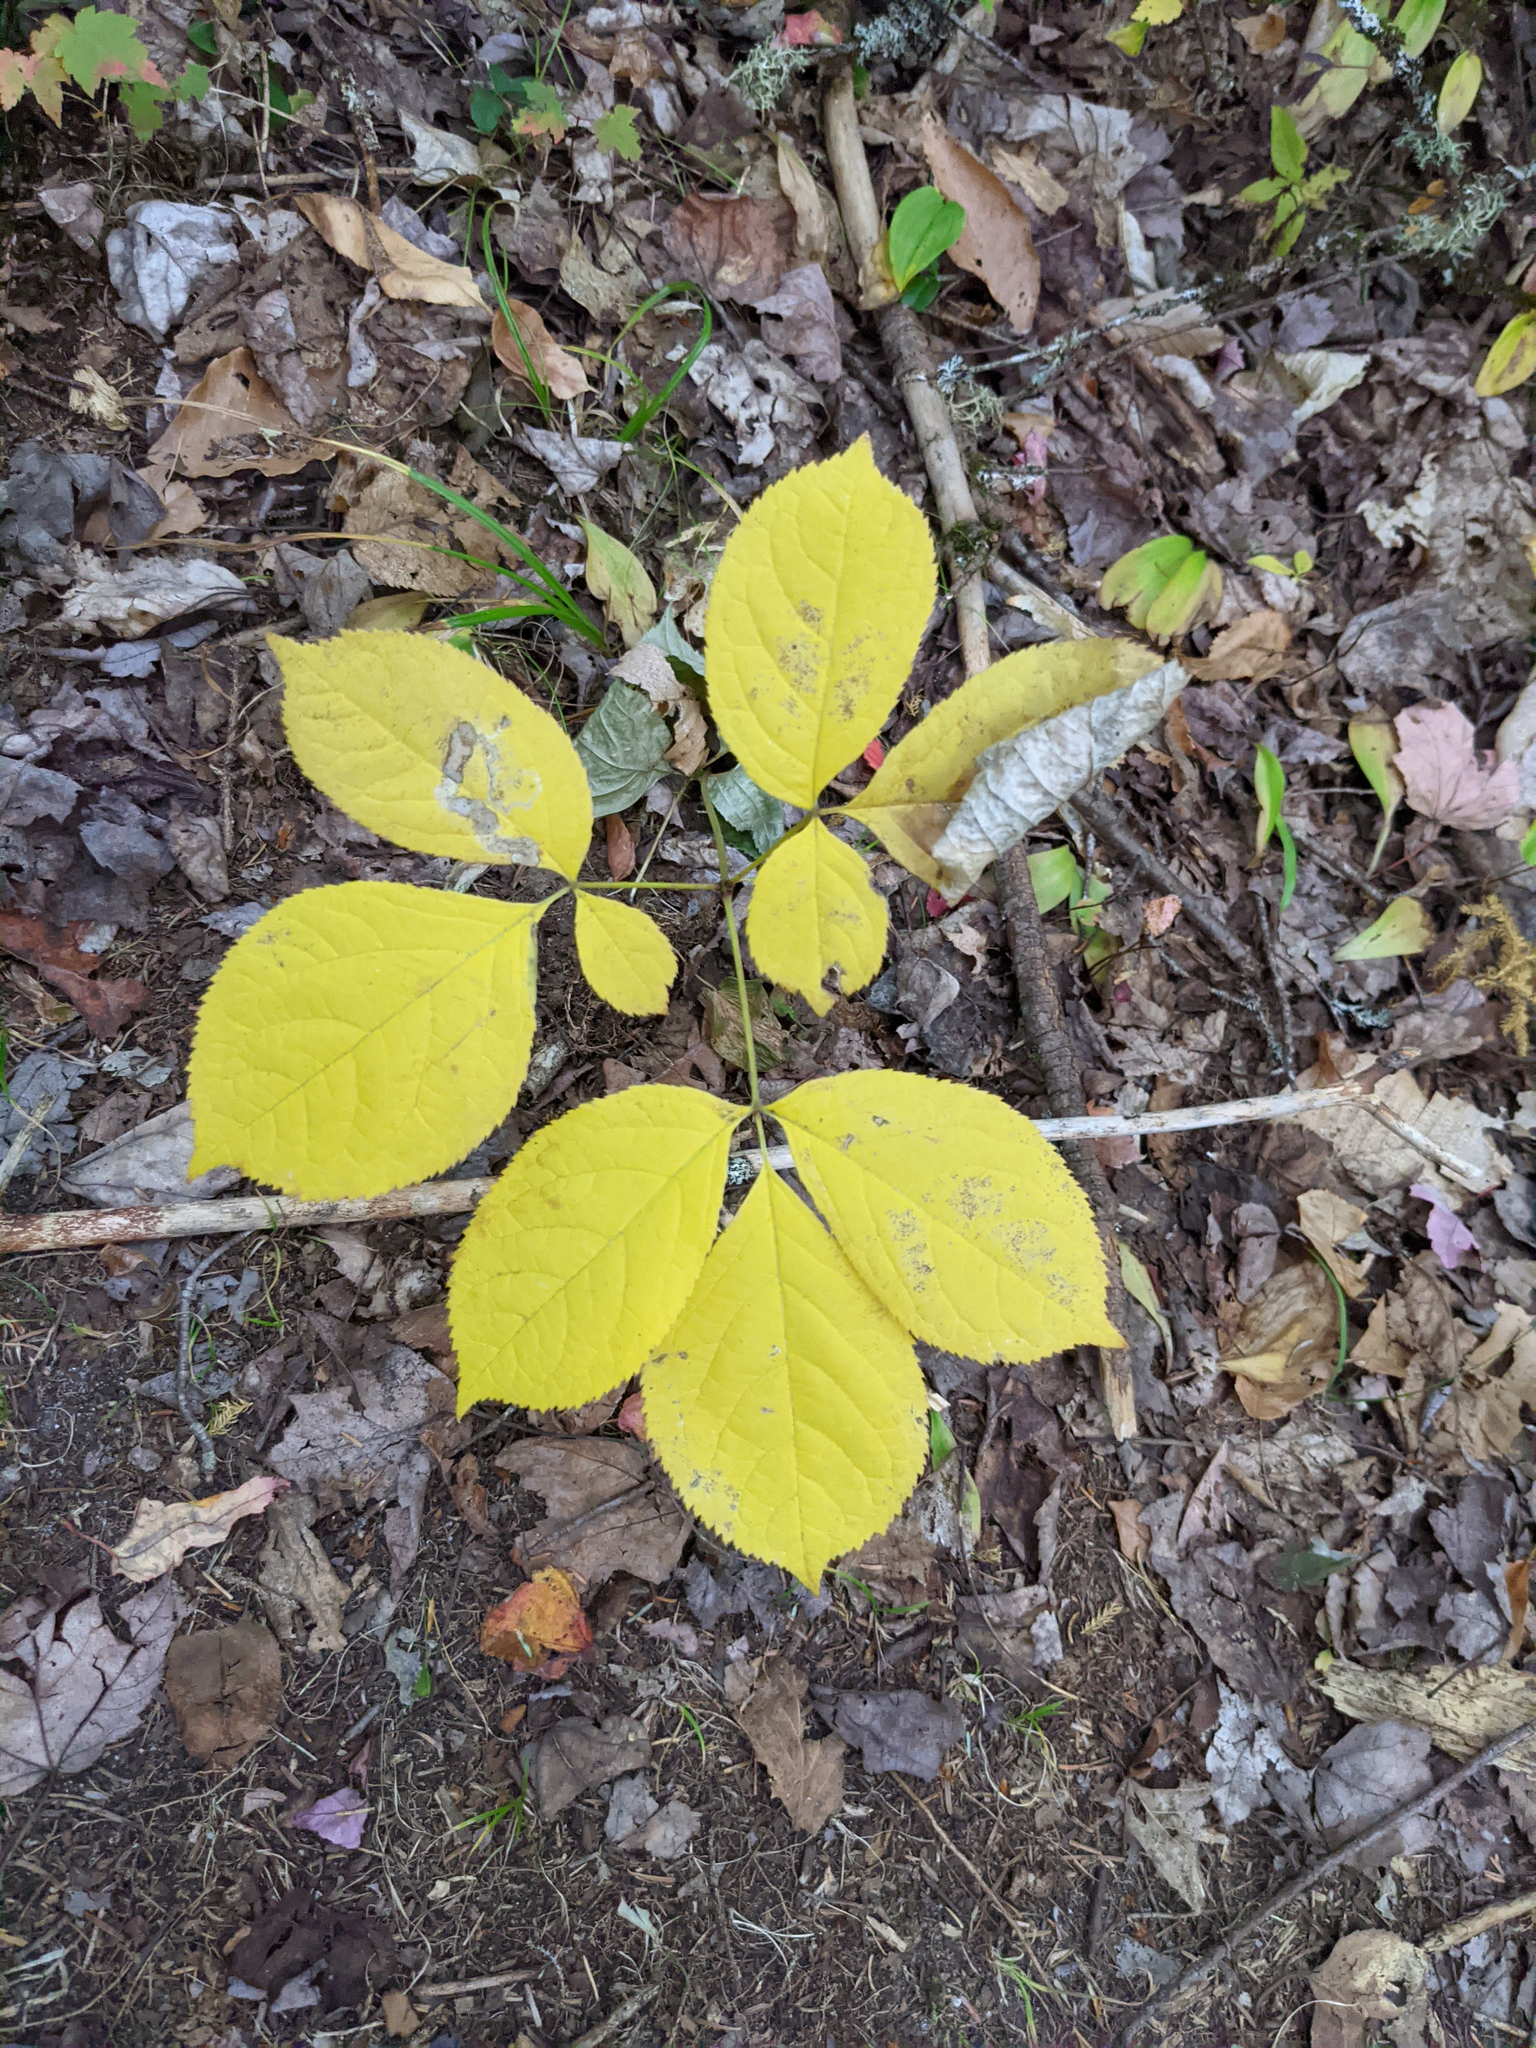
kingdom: Plantae
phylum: Tracheophyta
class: Magnoliopsida
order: Apiales
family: Araliaceae
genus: Aralia
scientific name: Aralia nudicaulis
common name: Wild sarsaparilla
